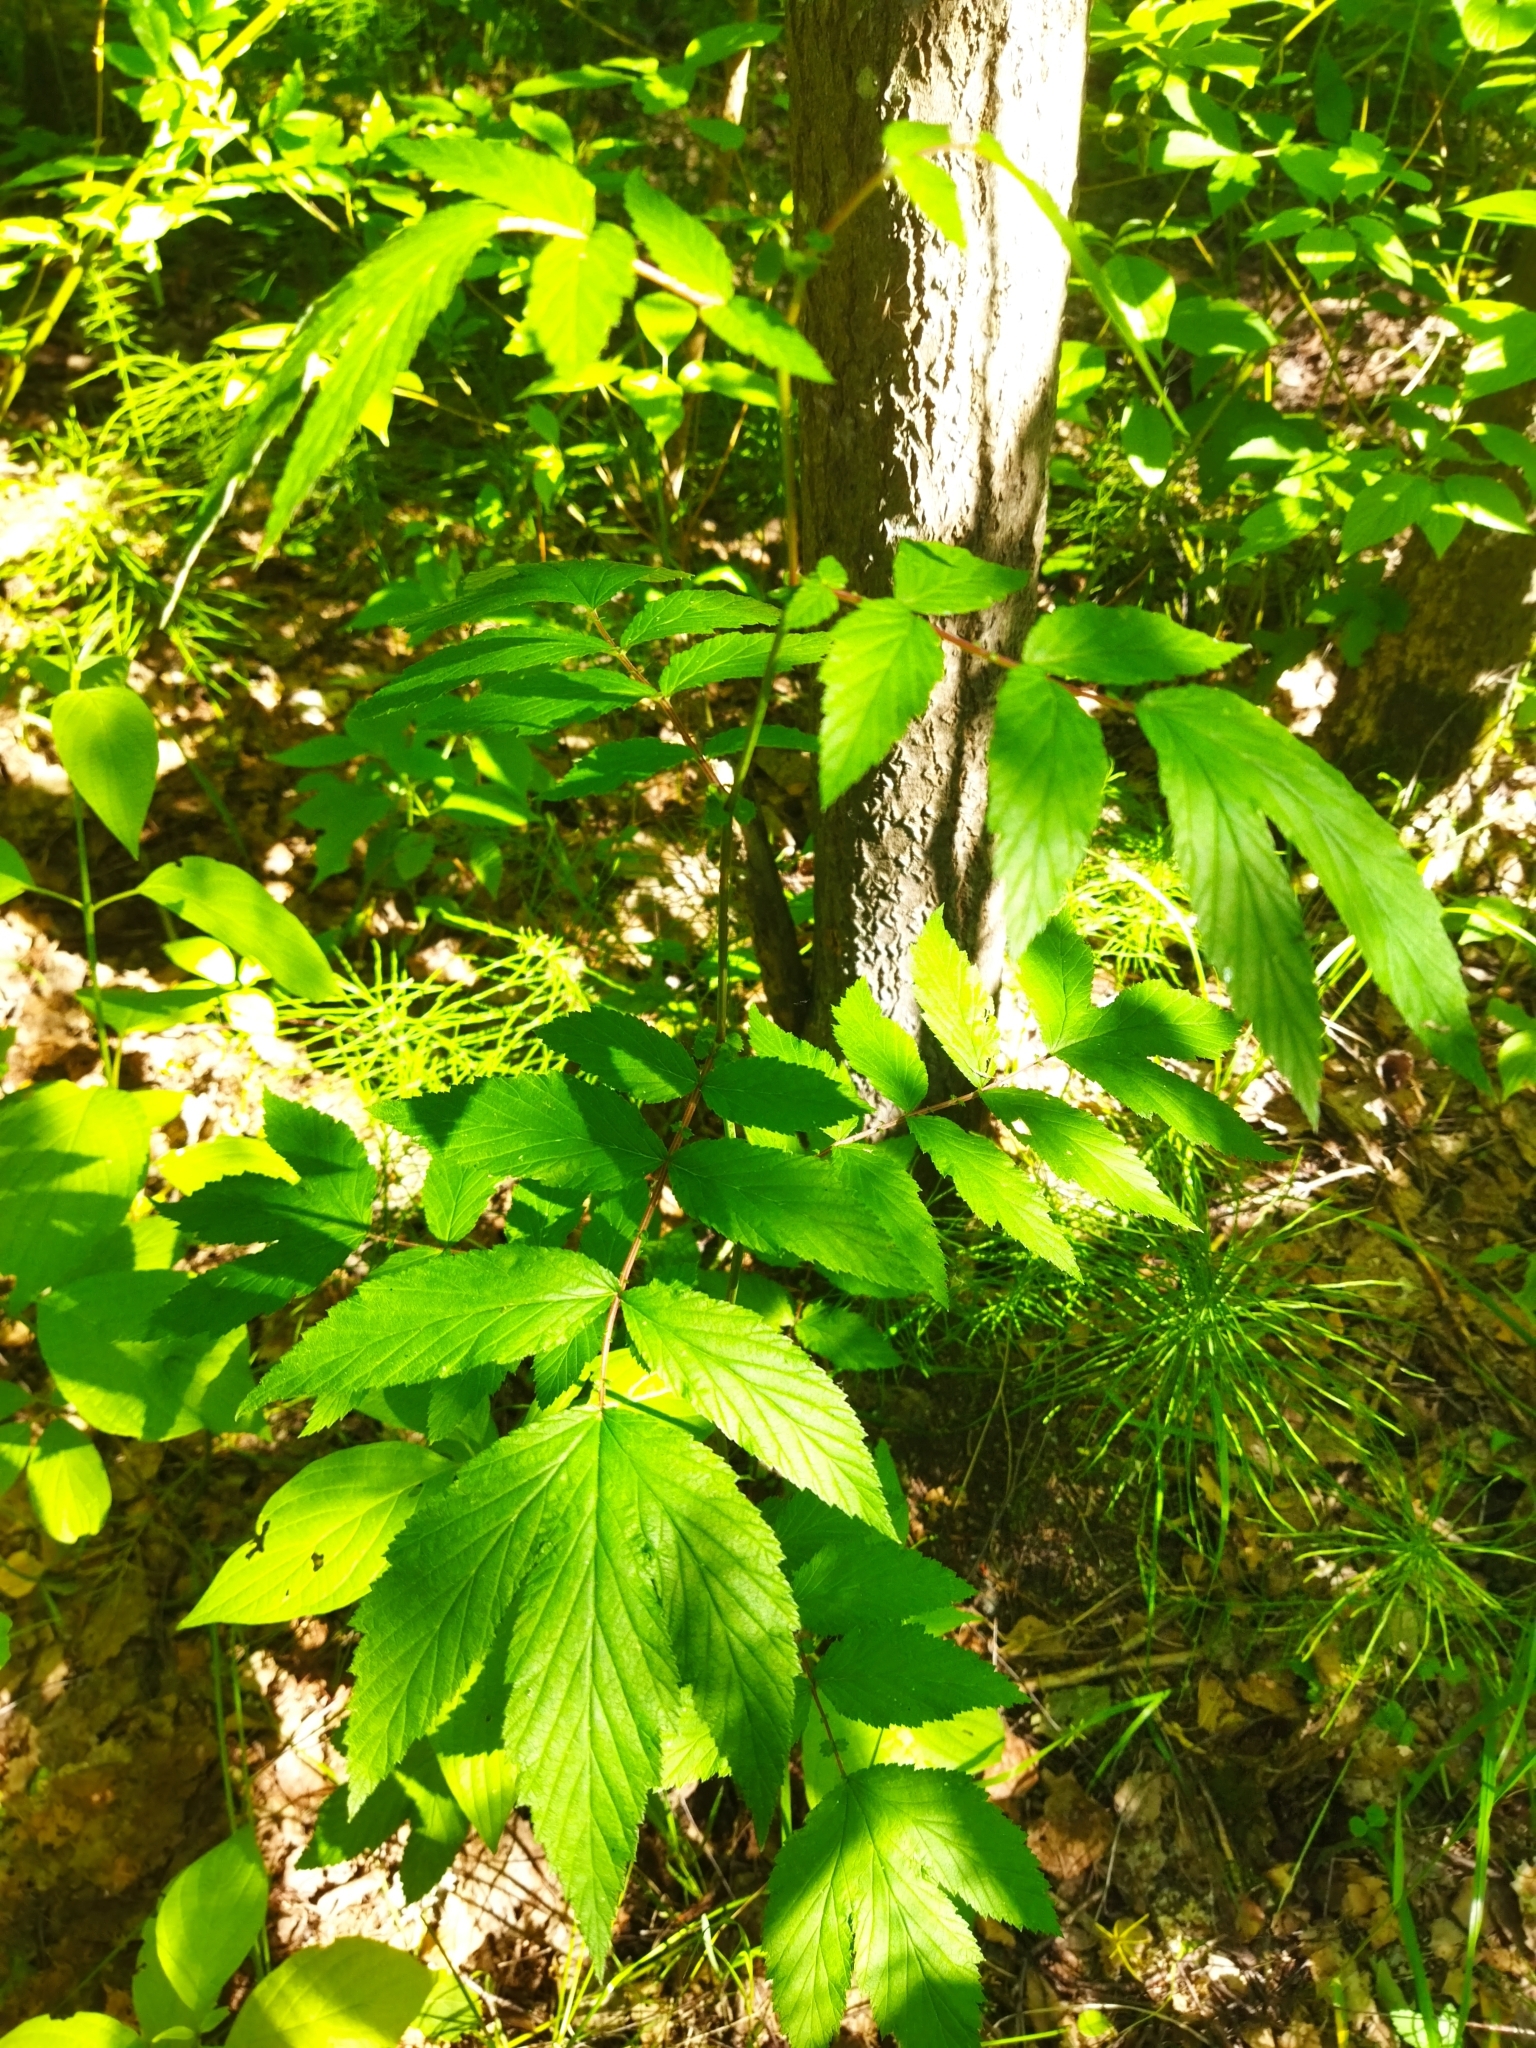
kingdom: Plantae
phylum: Tracheophyta
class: Magnoliopsida
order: Rosales
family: Rosaceae
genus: Filipendula
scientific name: Filipendula ulmaria
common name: Meadowsweet
